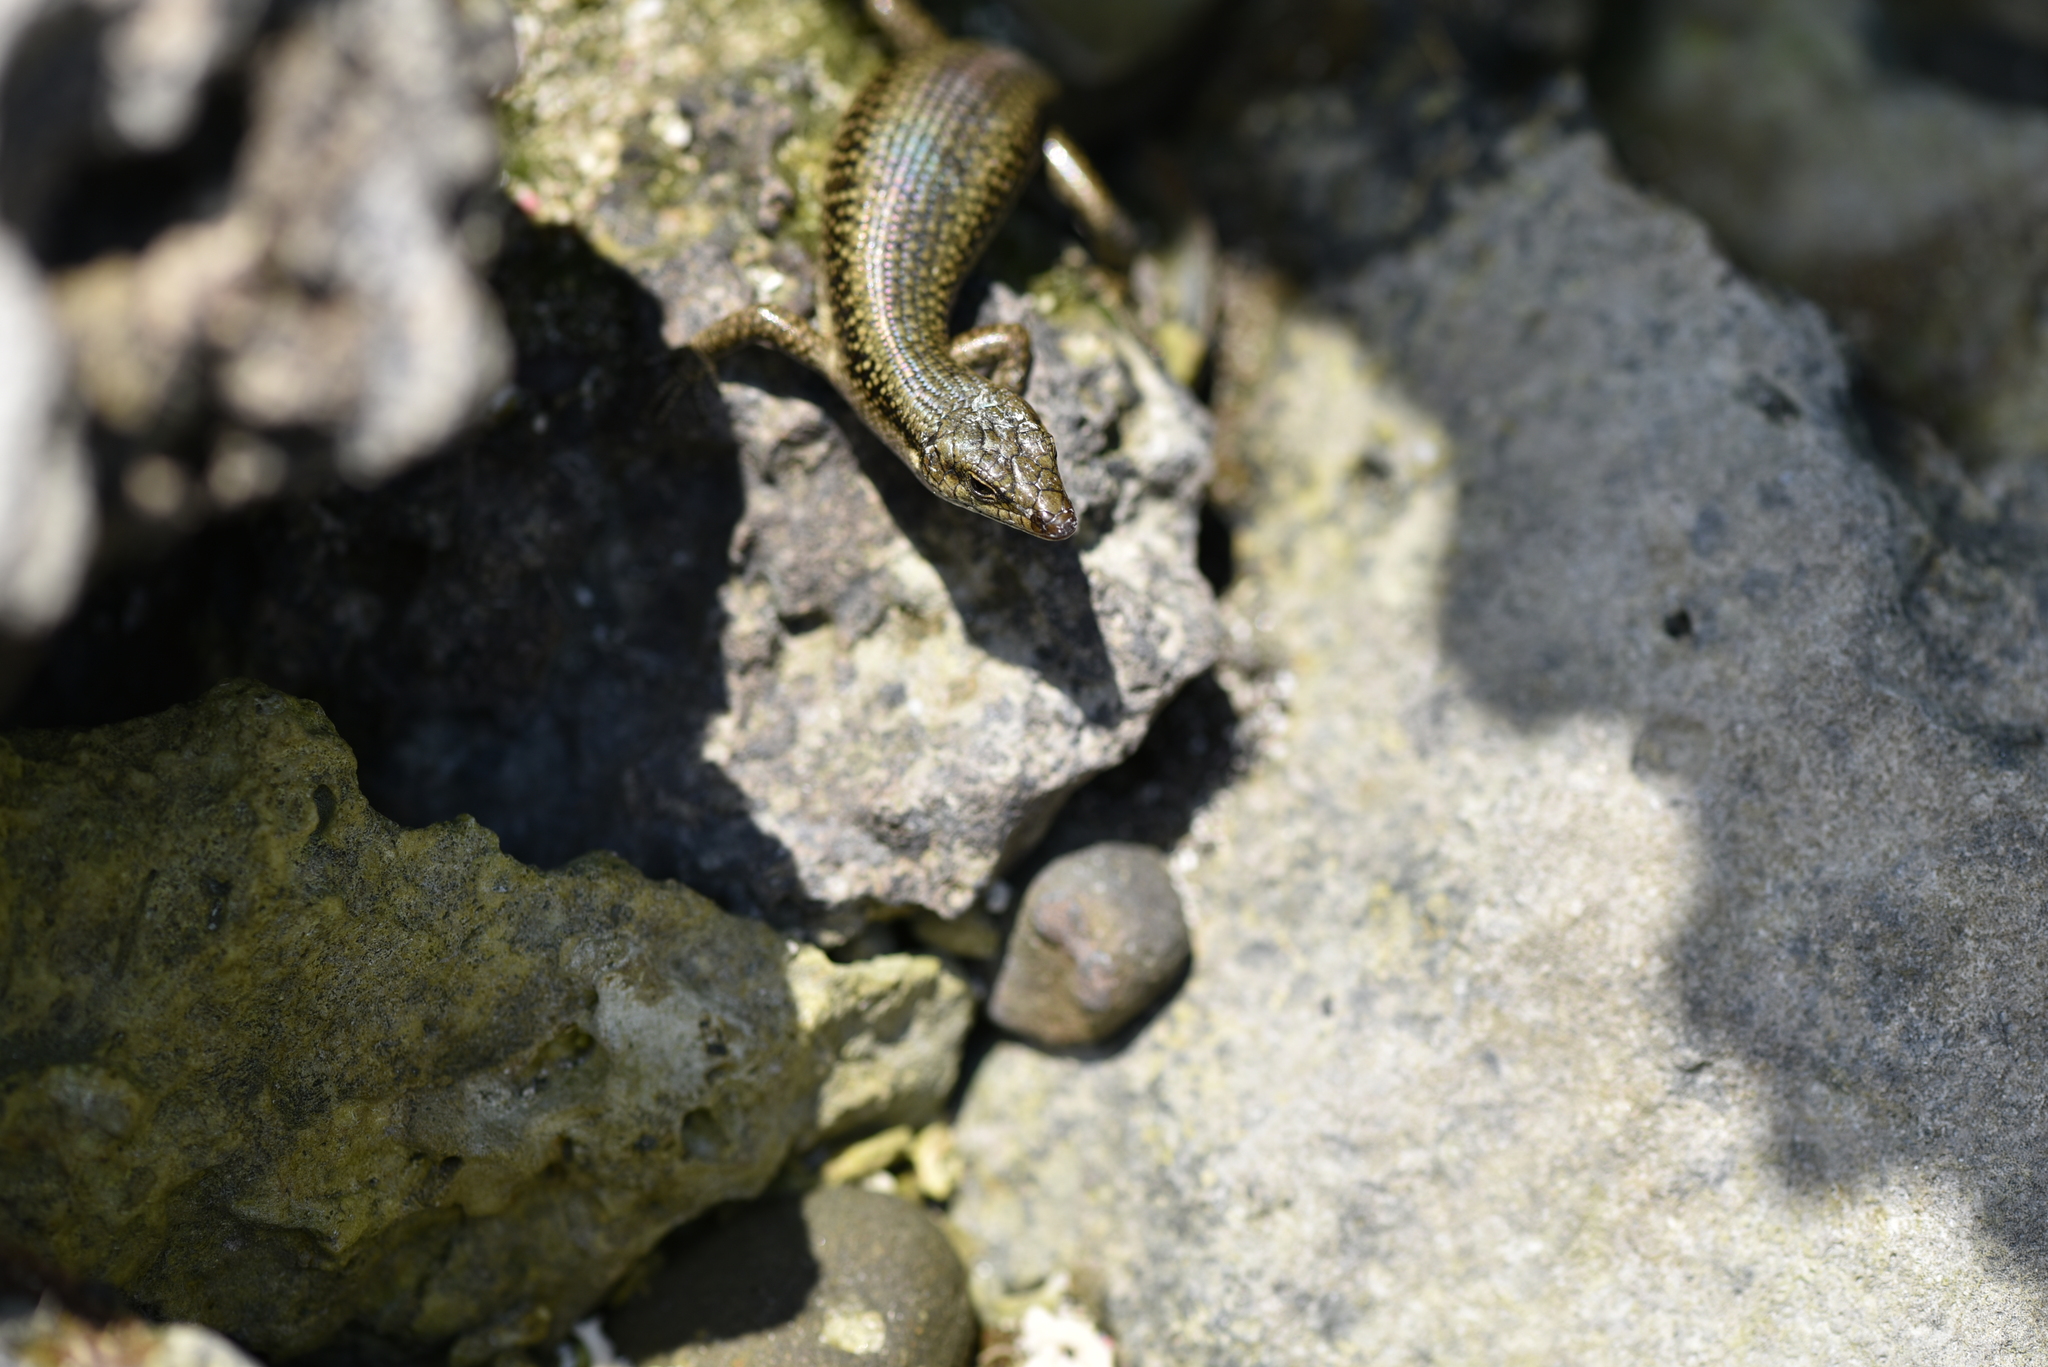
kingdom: Animalia
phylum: Chordata
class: Squamata
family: Scincidae
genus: Emoia
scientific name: Emoia atrocostata
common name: Littoral skink
